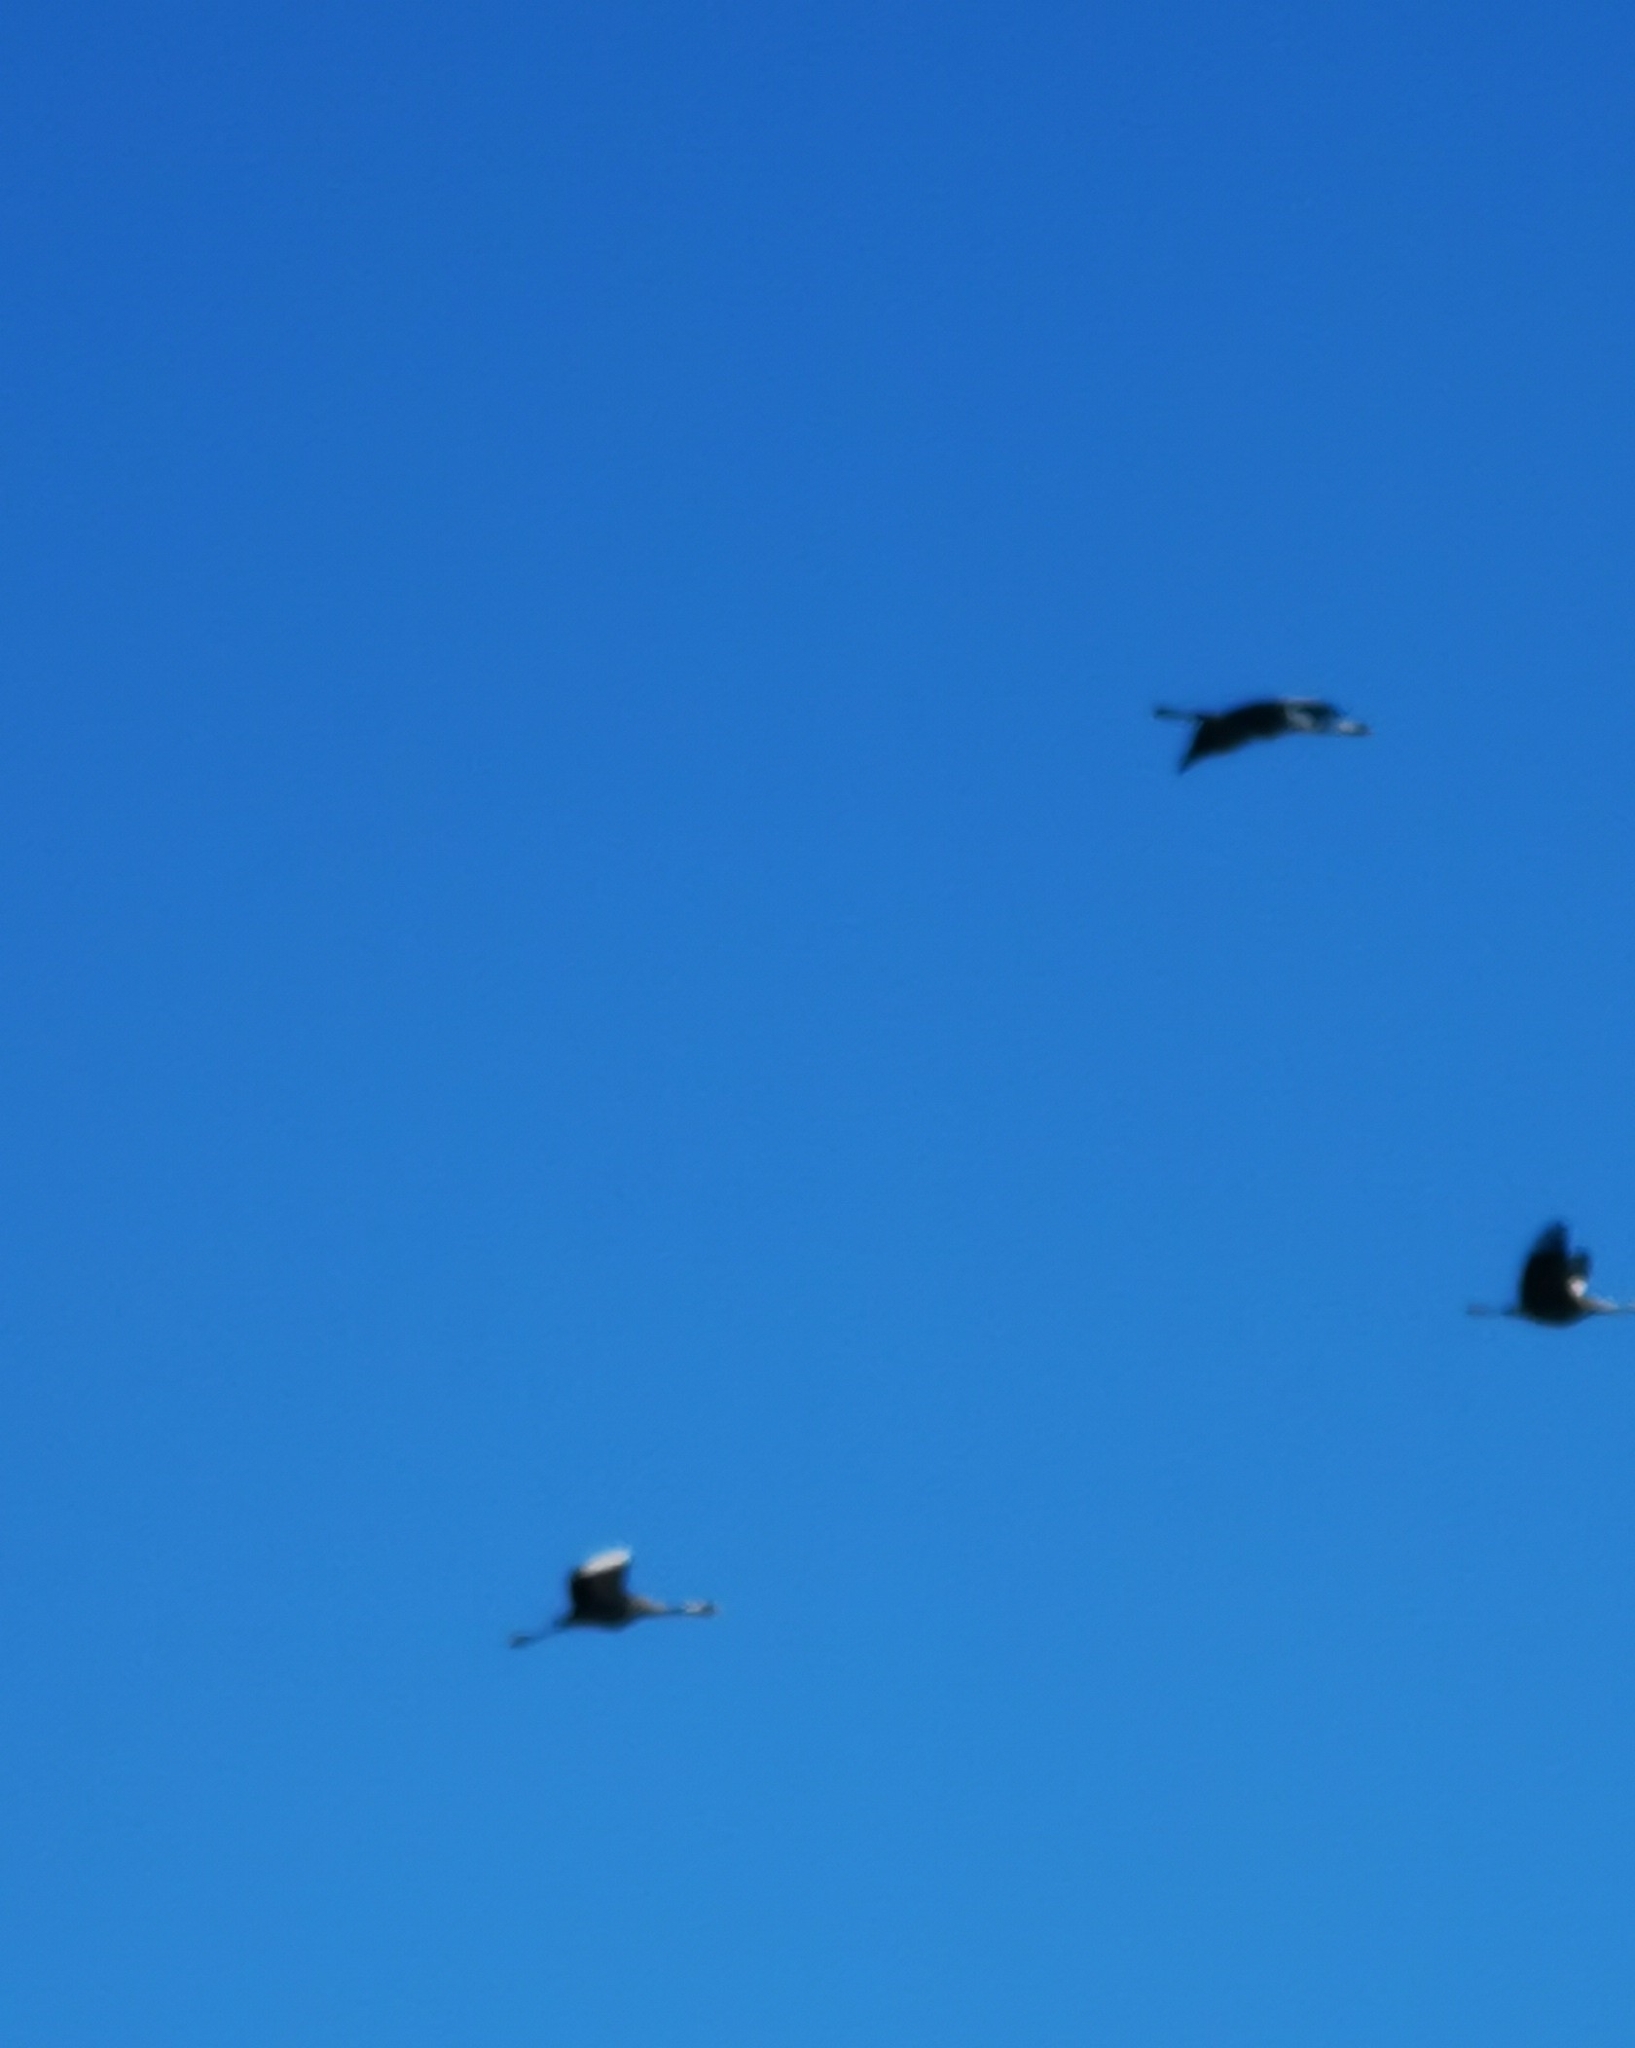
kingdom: Animalia
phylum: Chordata
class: Aves
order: Gruiformes
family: Gruidae
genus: Grus
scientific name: Grus grus
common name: Common crane
